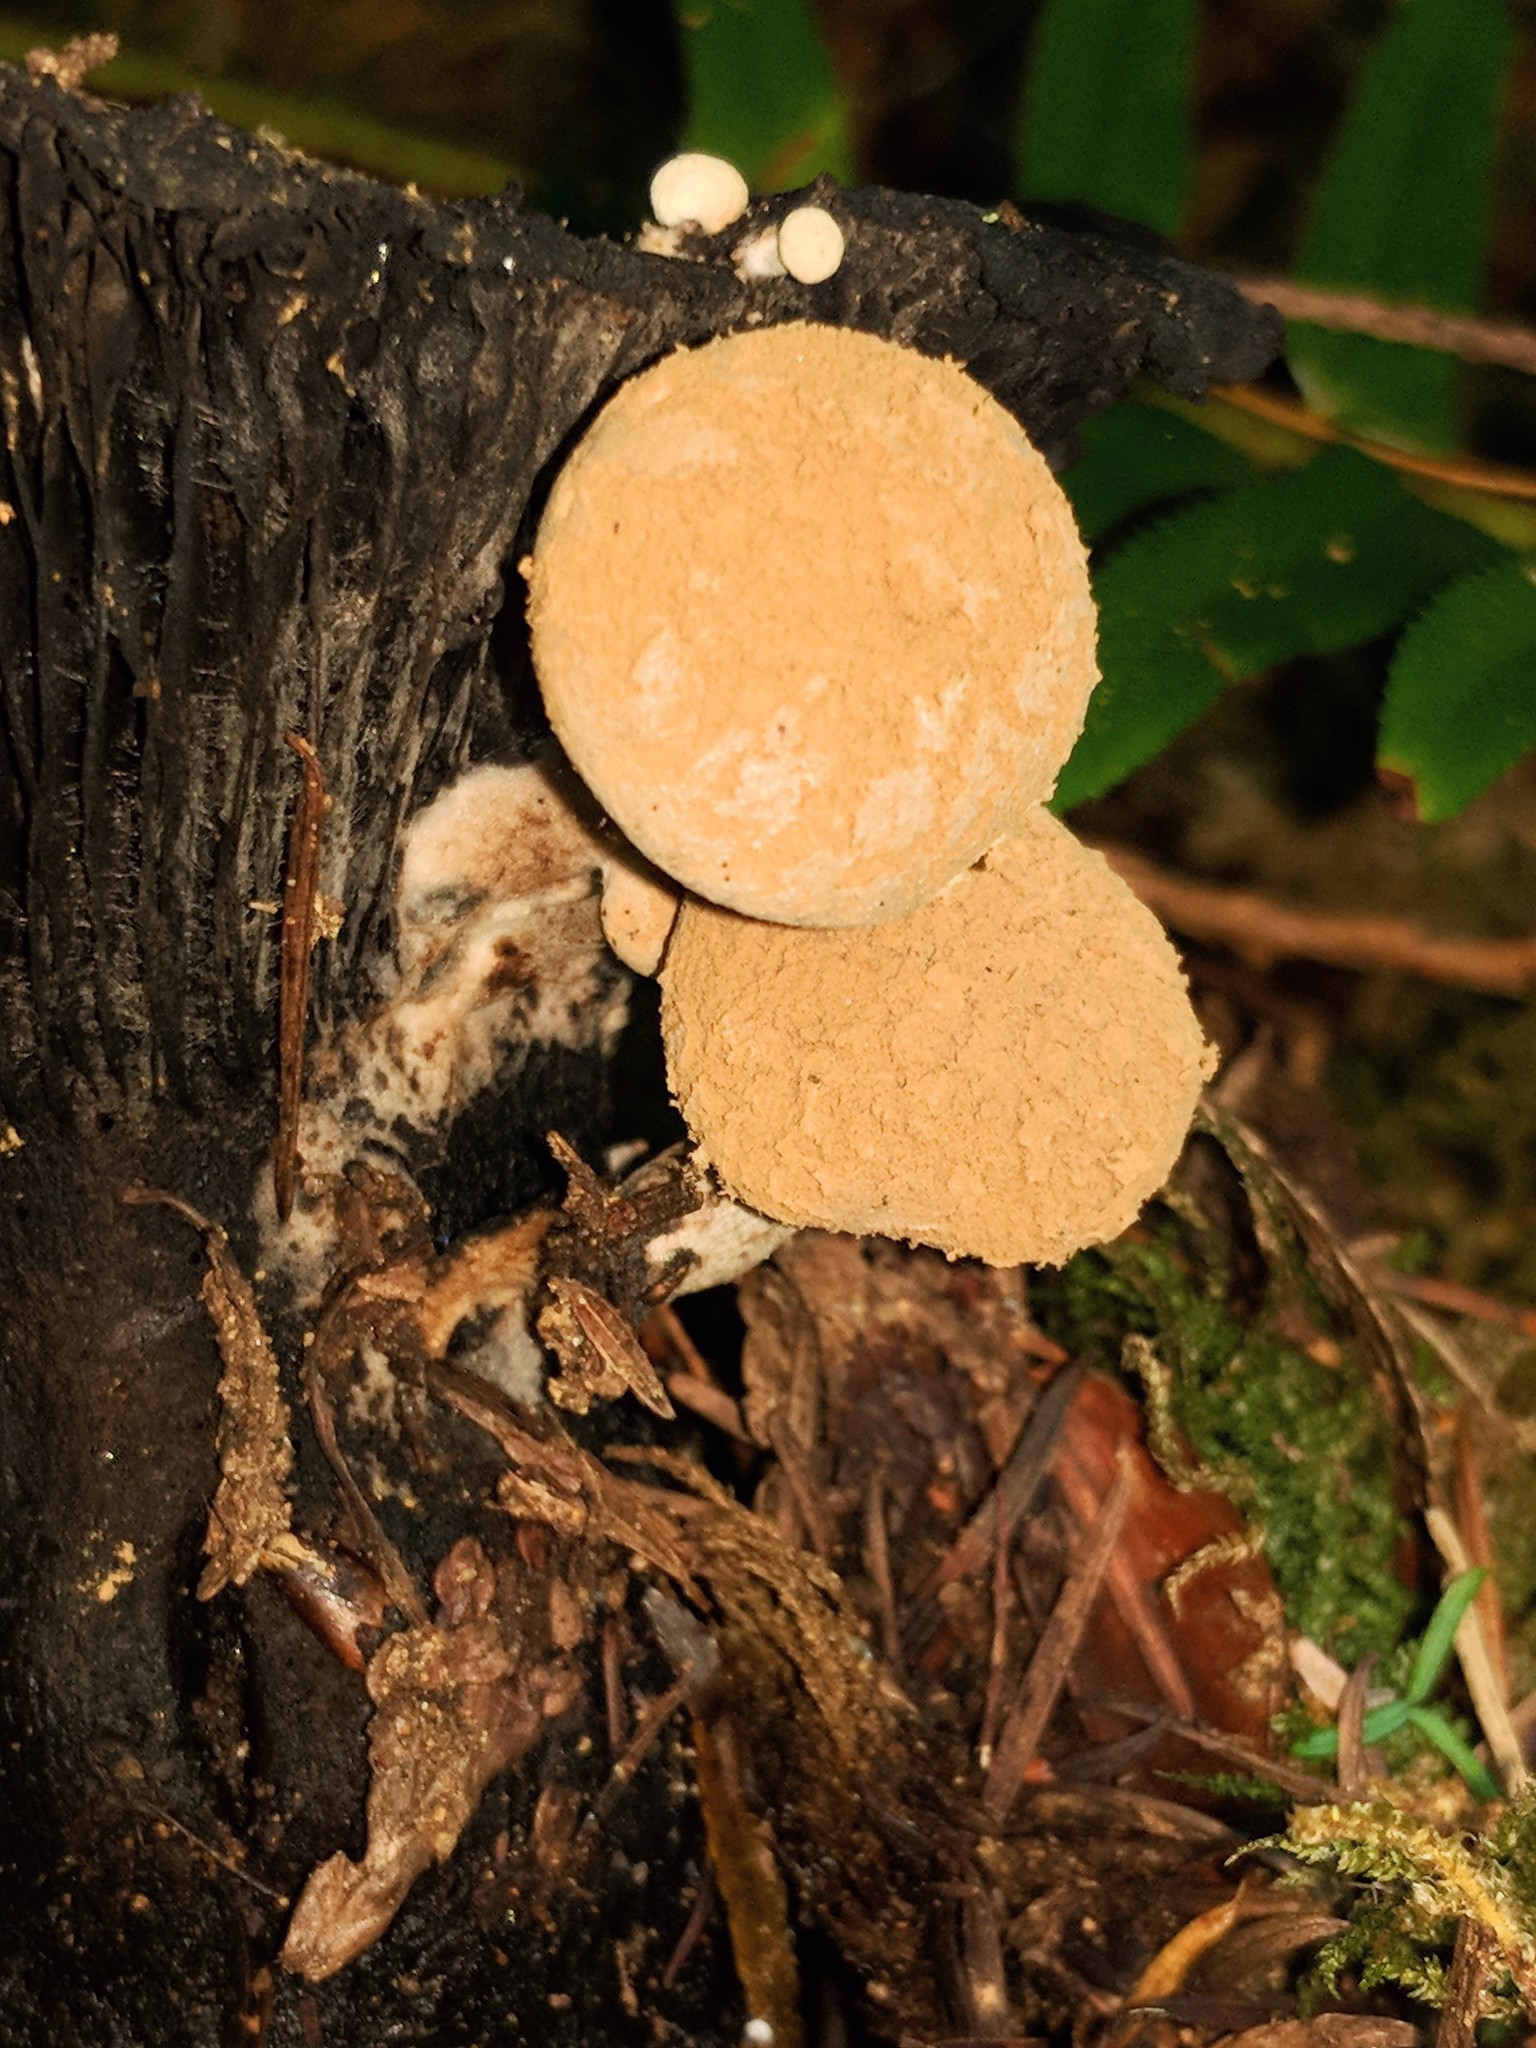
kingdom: Fungi
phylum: Basidiomycota
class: Agaricomycetes
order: Agaricales
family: Lyophyllaceae
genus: Asterophora
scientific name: Asterophora lycoperdoides
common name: Pick-a-back toadstool
